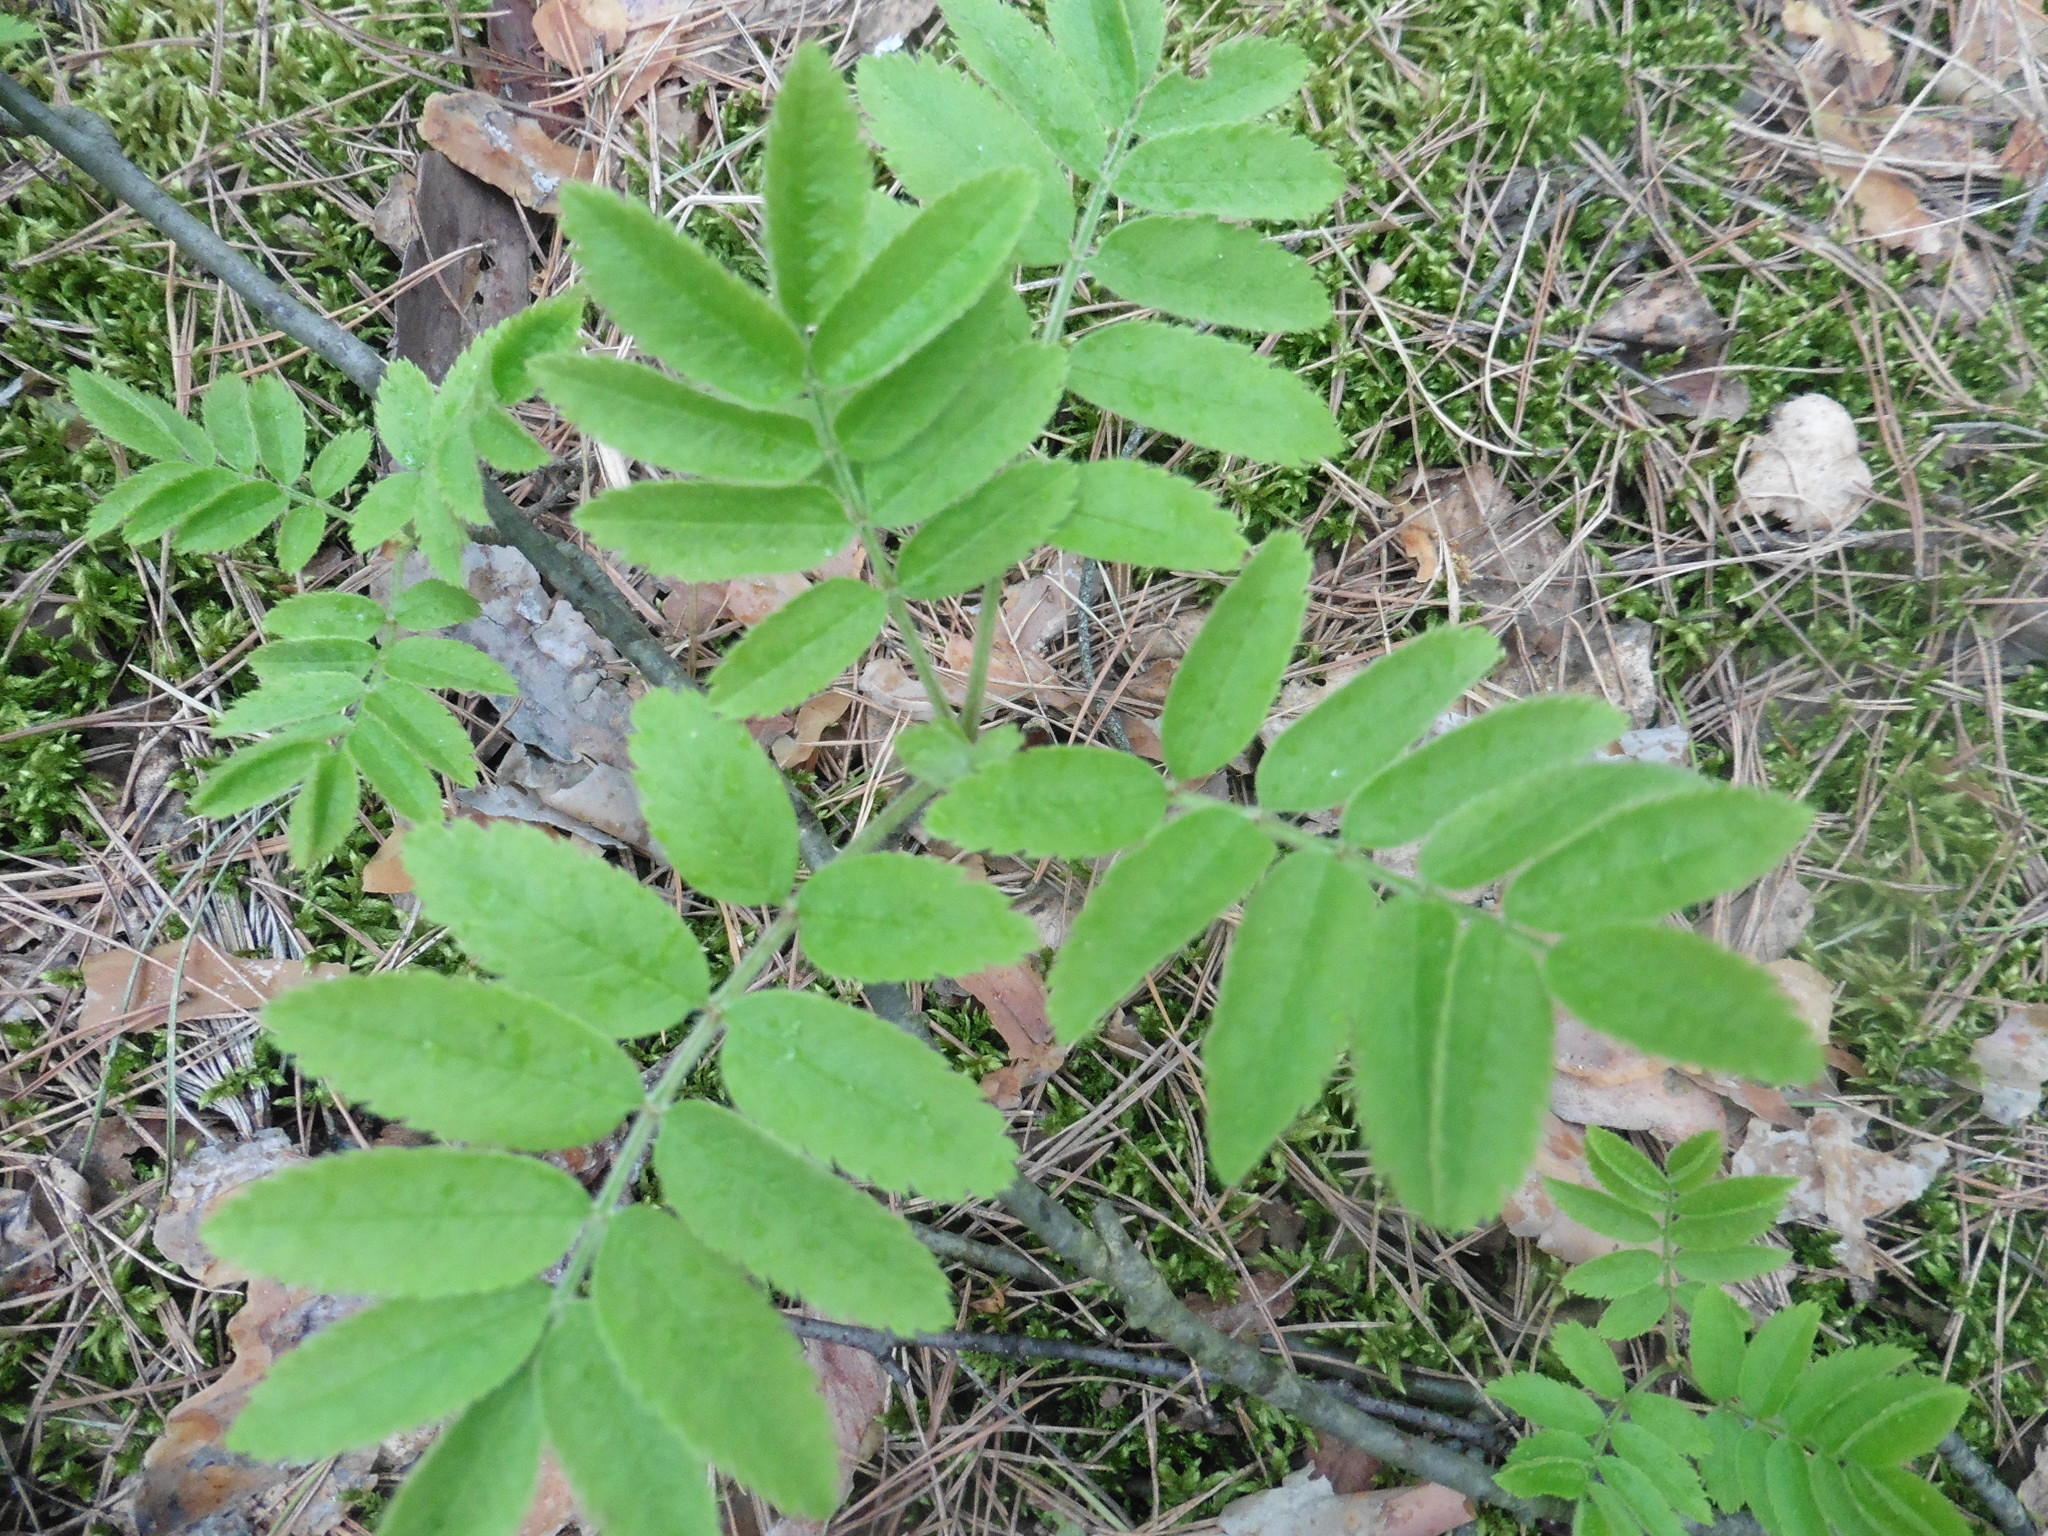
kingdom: Plantae
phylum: Tracheophyta
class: Magnoliopsida
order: Rosales
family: Rosaceae
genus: Sorbus
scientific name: Sorbus aucuparia
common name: Rowan
